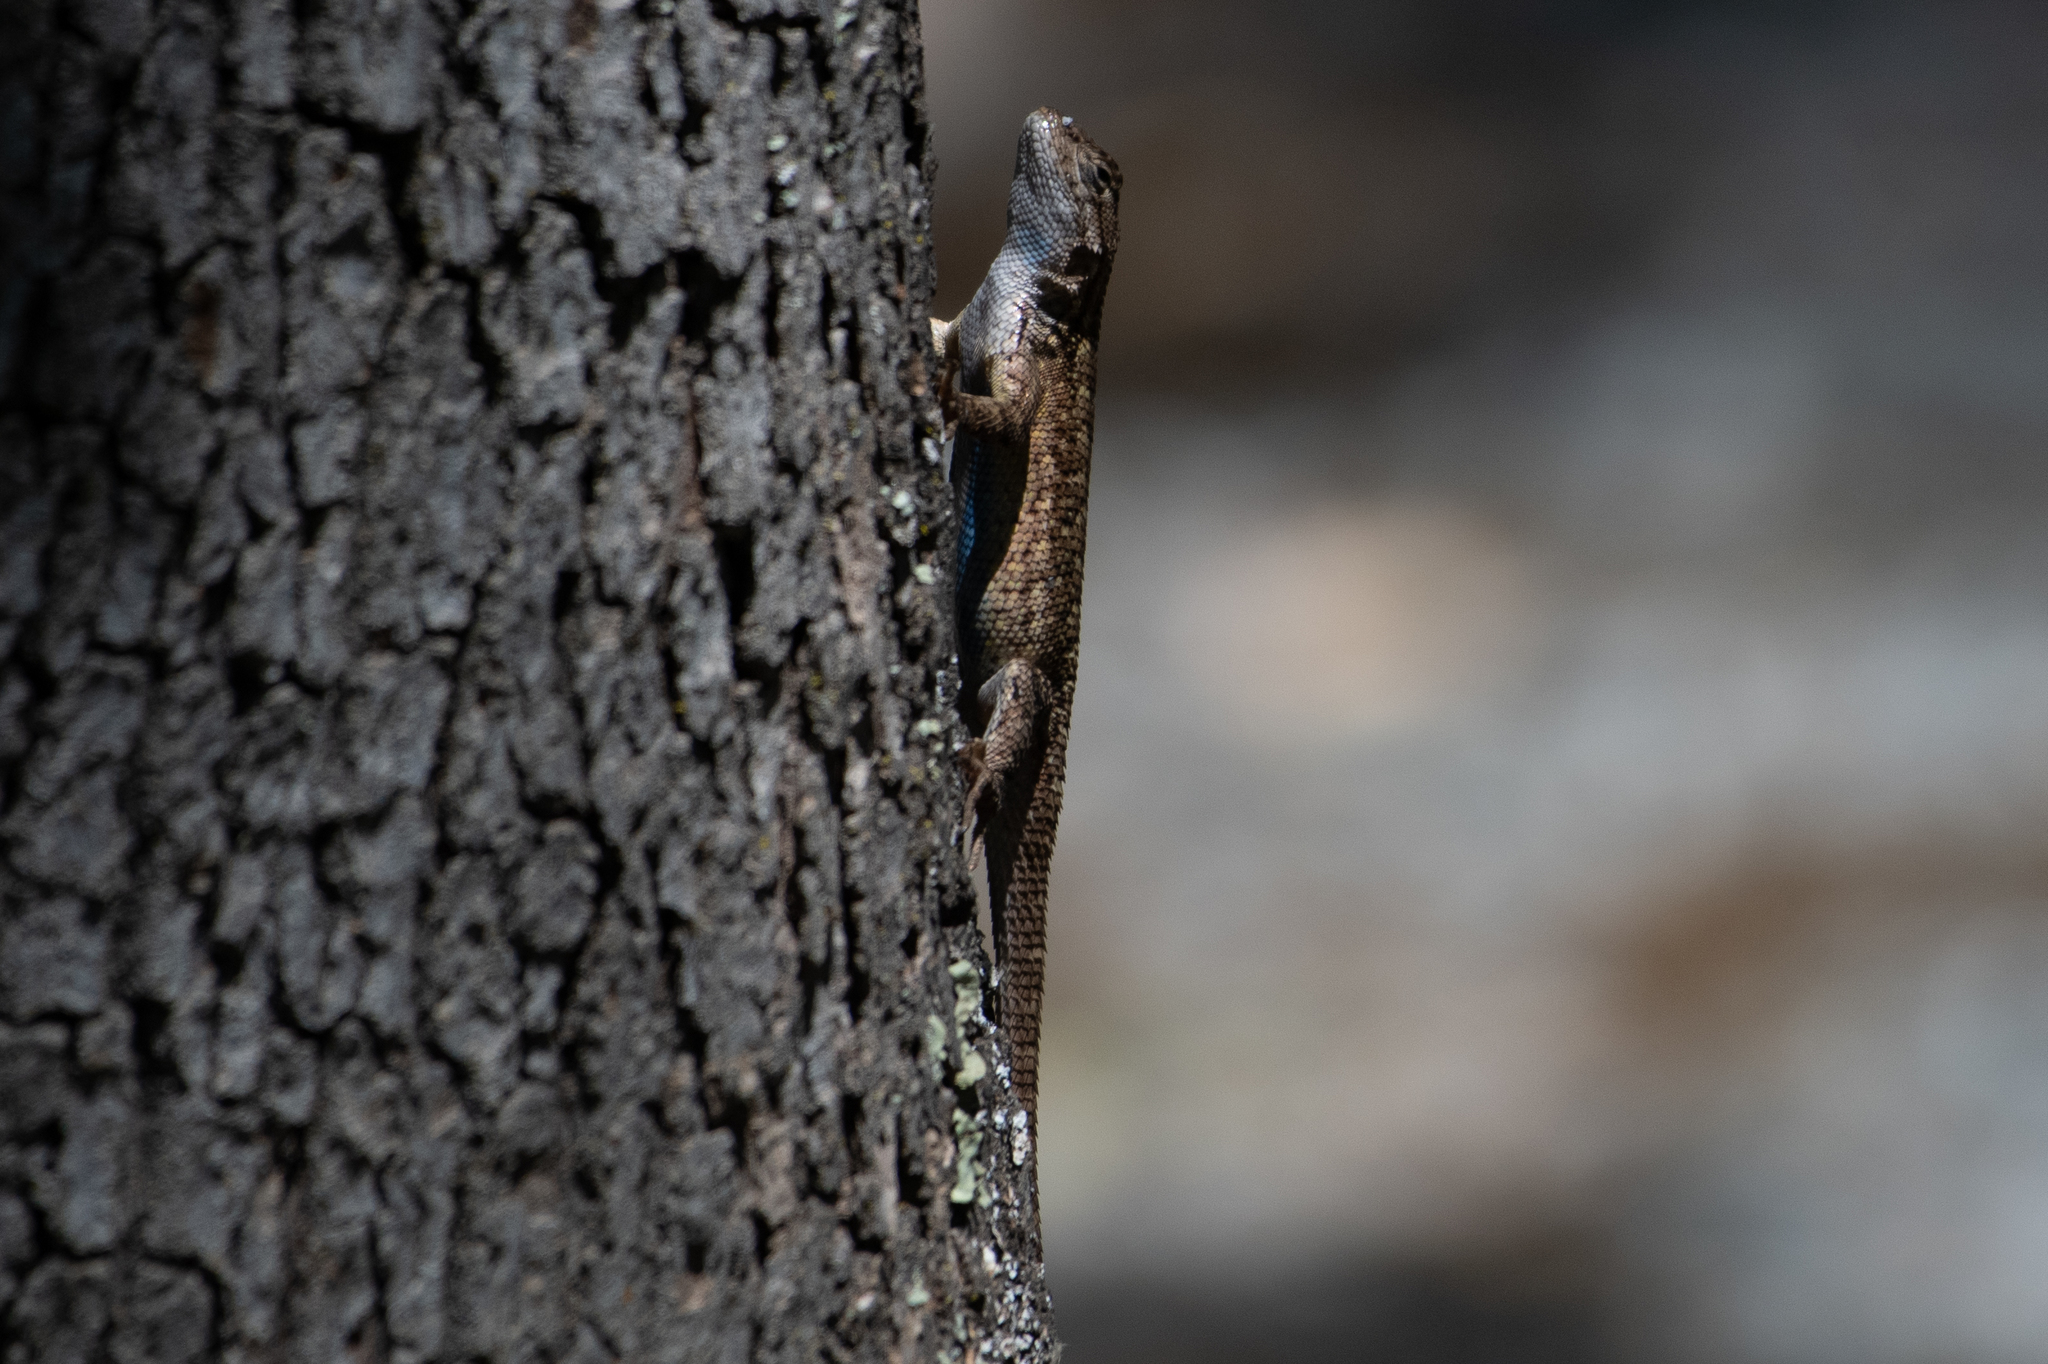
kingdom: Animalia
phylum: Chordata
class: Squamata
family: Phrynosomatidae
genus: Sceloporus
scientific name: Sceloporus occidentalis
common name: Western fence lizard
